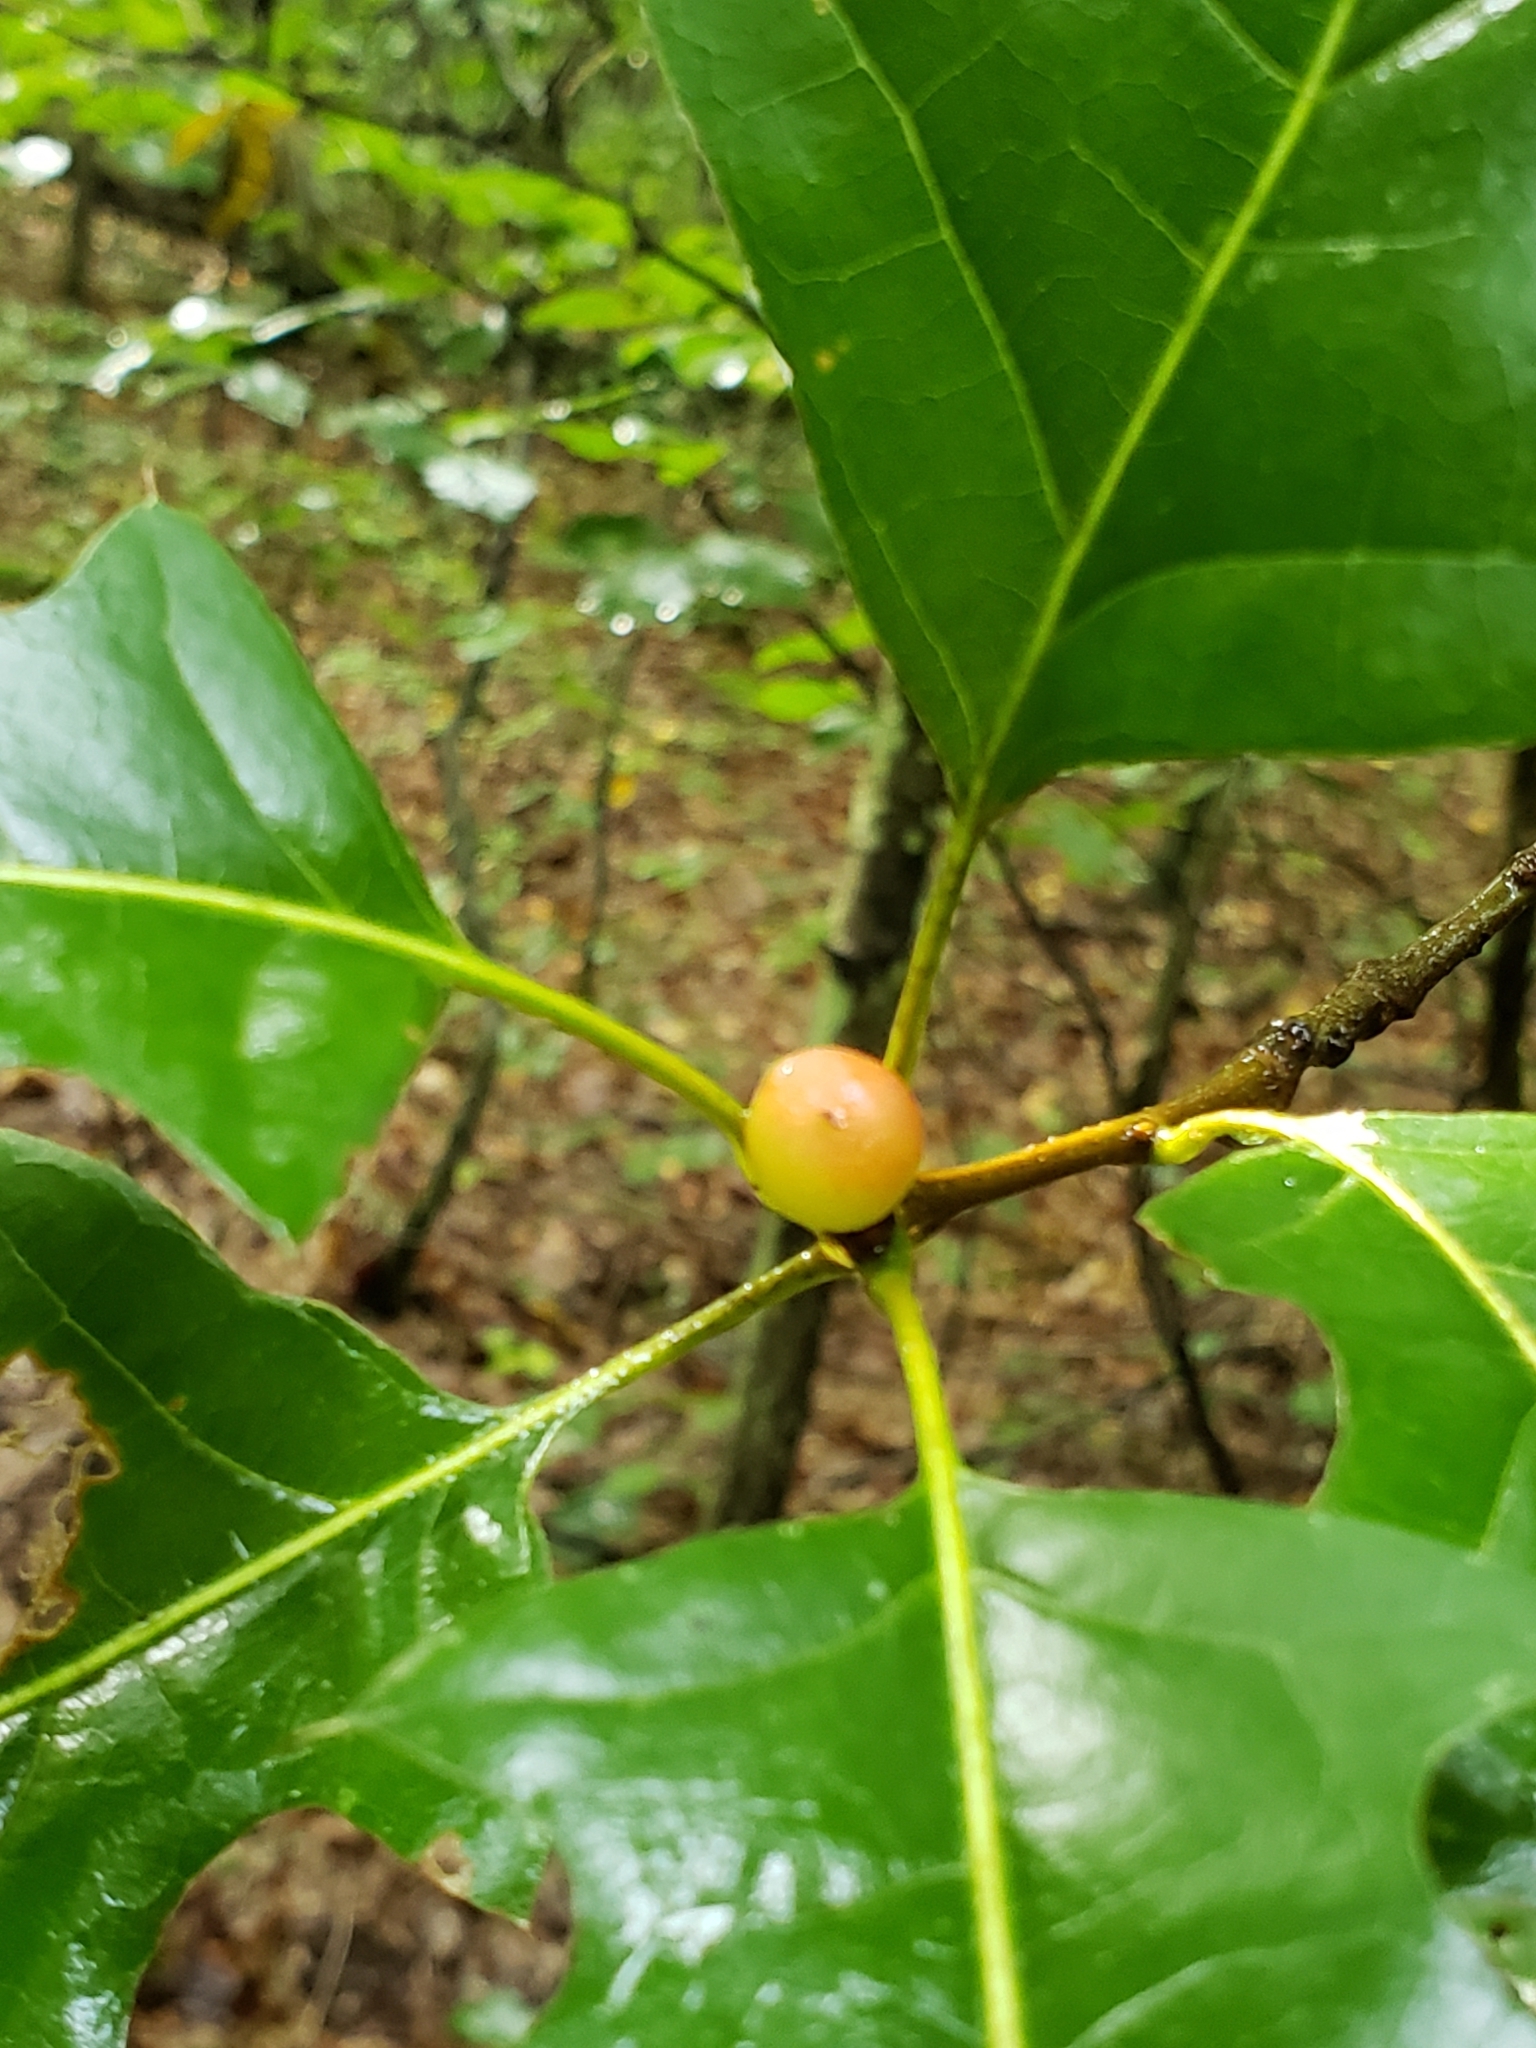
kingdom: Animalia
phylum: Arthropoda
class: Insecta
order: Hymenoptera
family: Cynipidae
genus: Amphibolips
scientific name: Amphibolips
